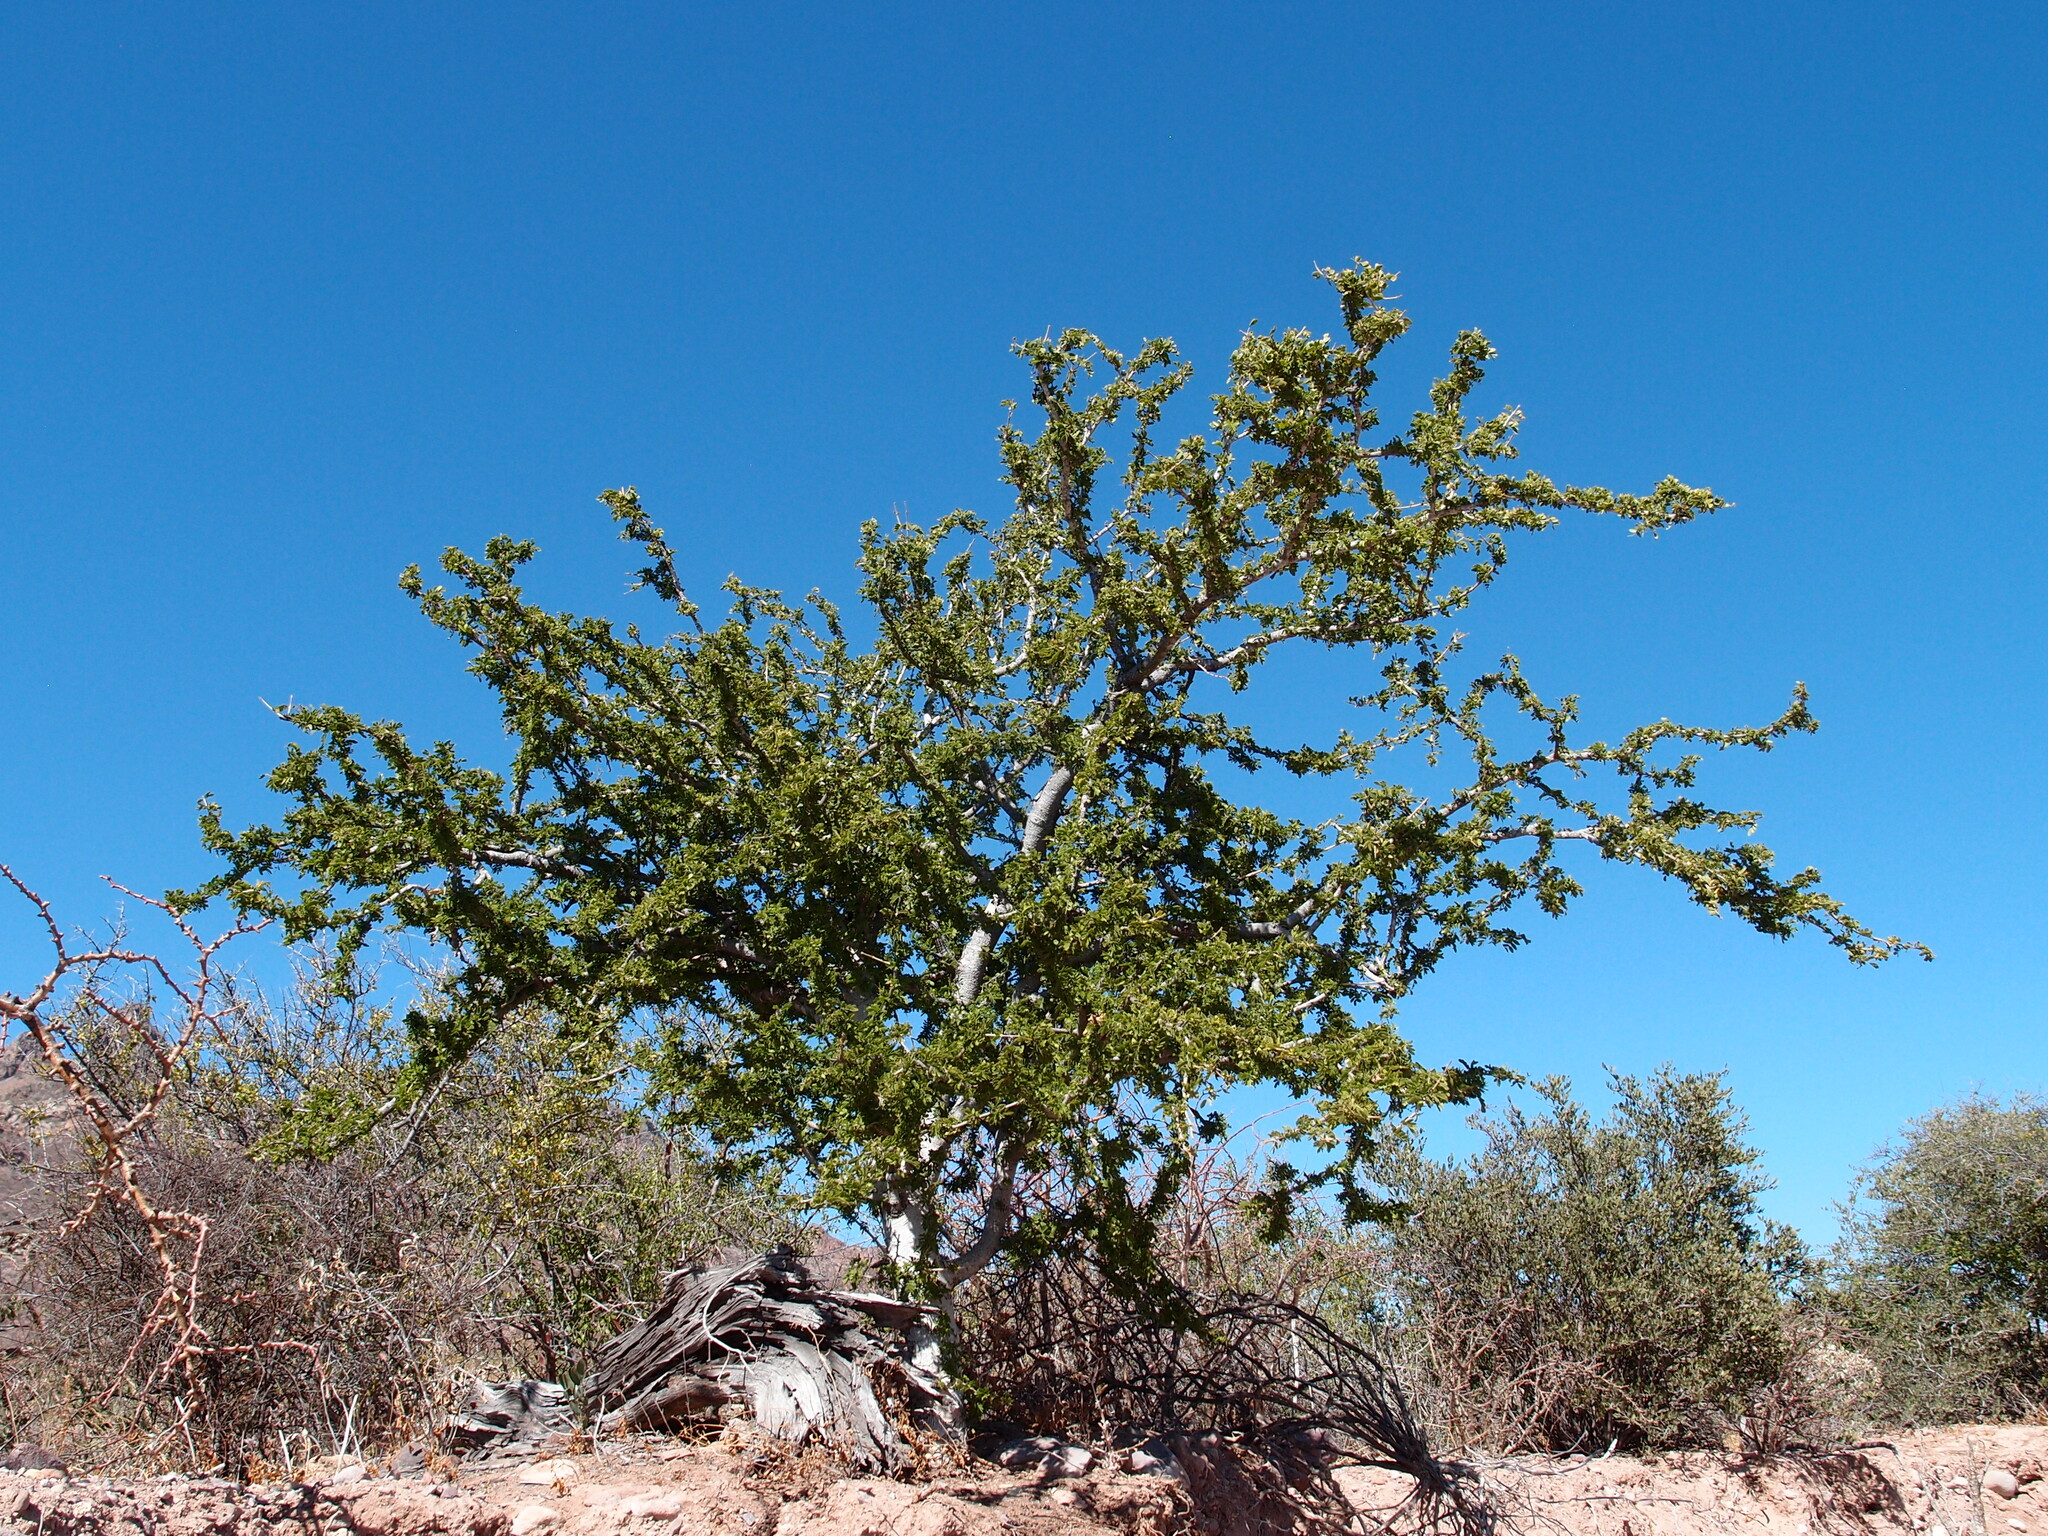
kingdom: Plantae
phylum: Tracheophyta
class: Magnoliopsida
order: Zygophyllales
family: Zygophyllaceae
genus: Guaiacum
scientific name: Guaiacum coulteri
